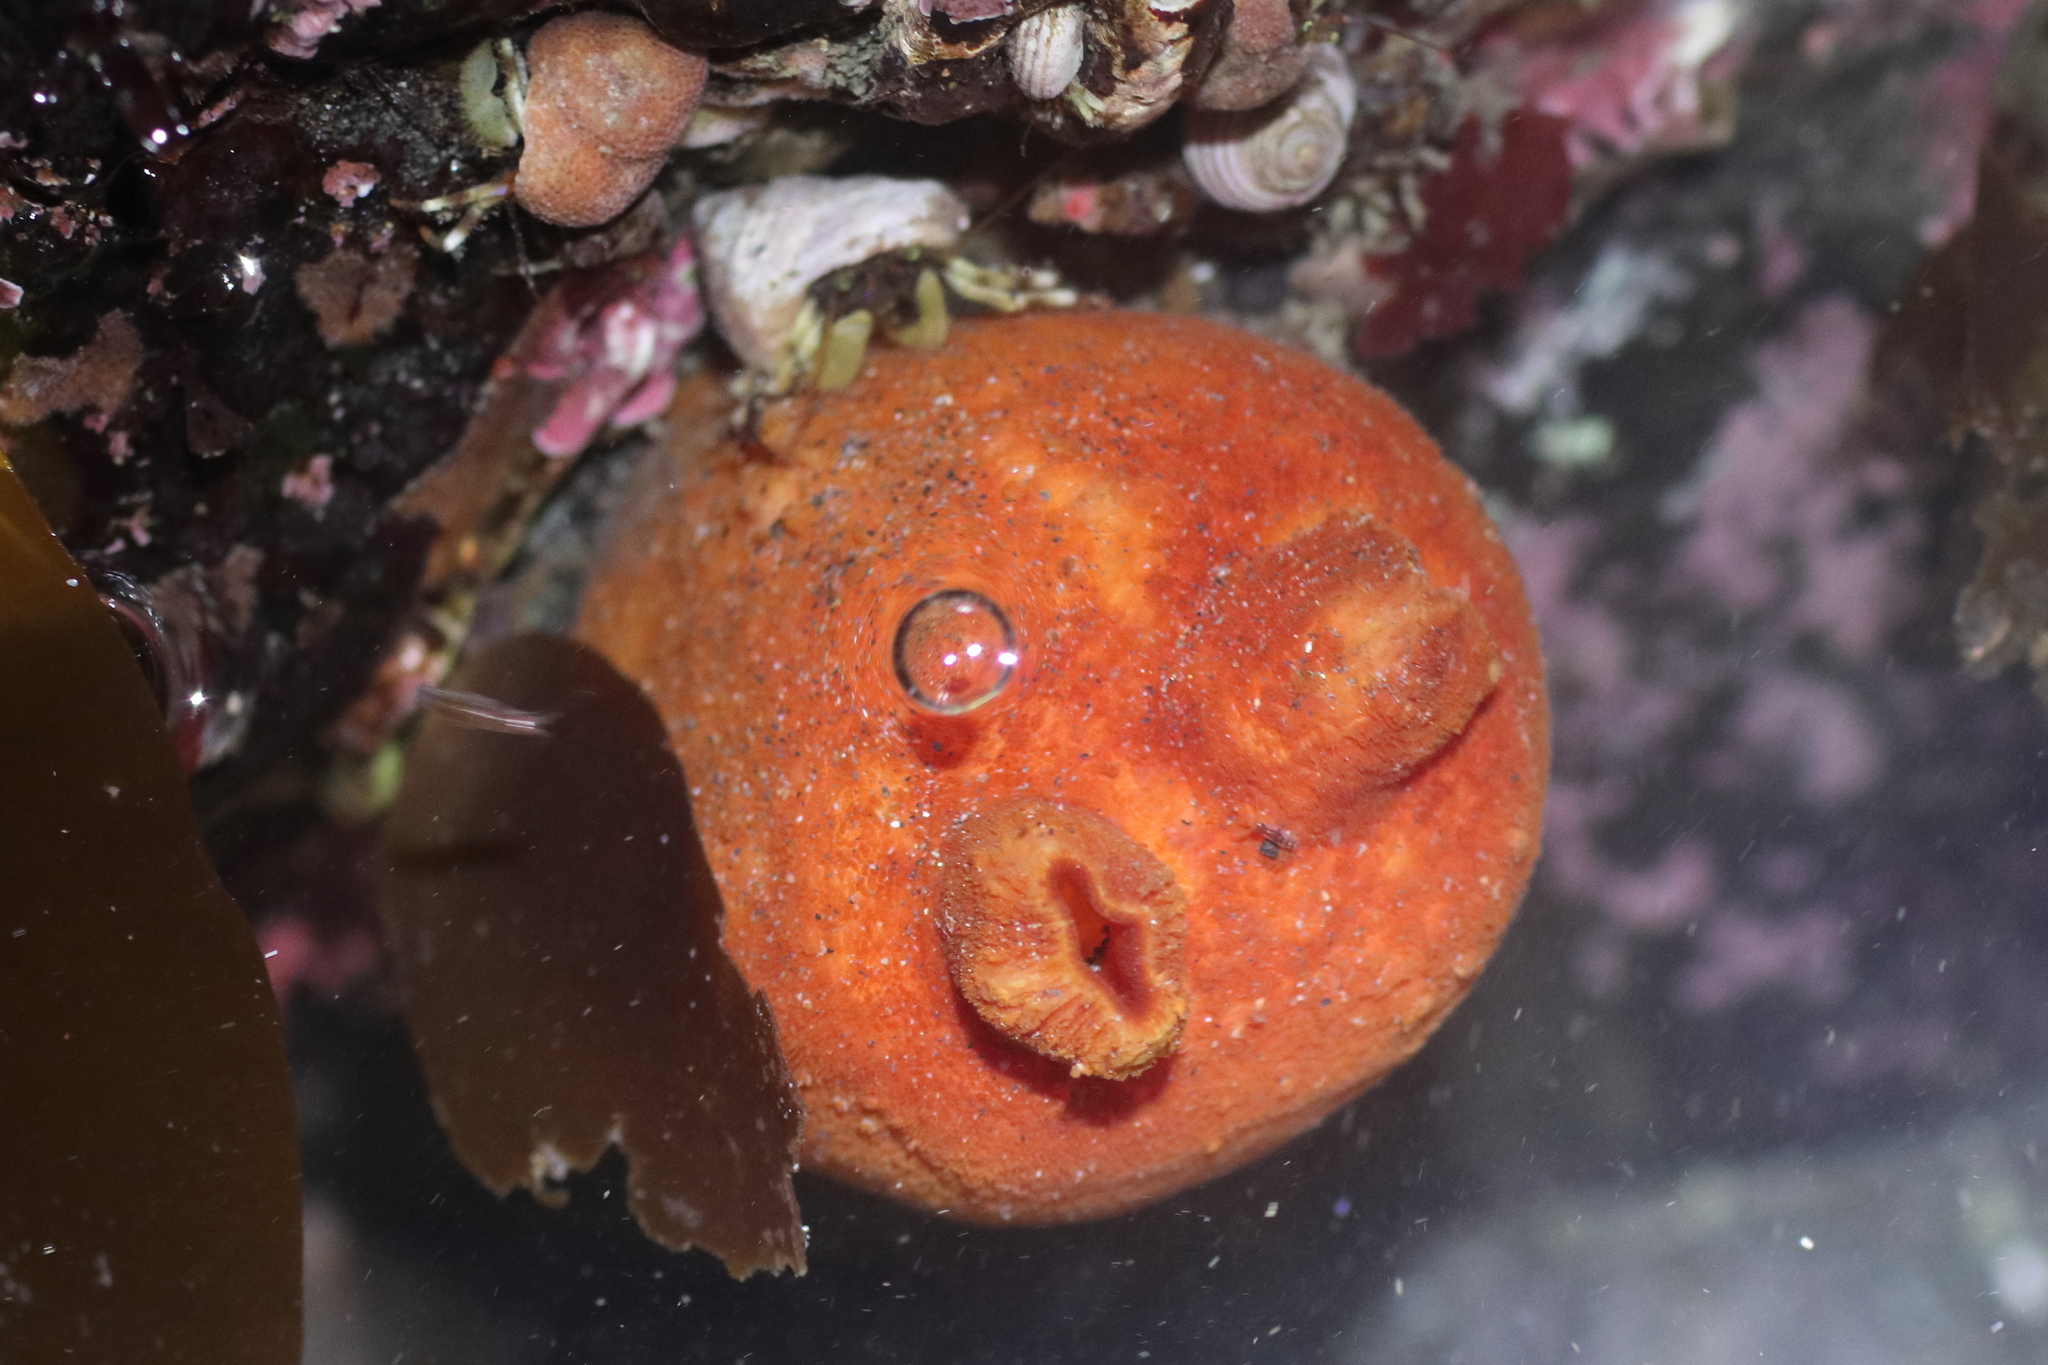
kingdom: Animalia
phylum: Chordata
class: Ascidiacea
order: Stolidobranchia
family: Pyuridae
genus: Halocynthia
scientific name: Halocynthia aurantium
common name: Sea peach
